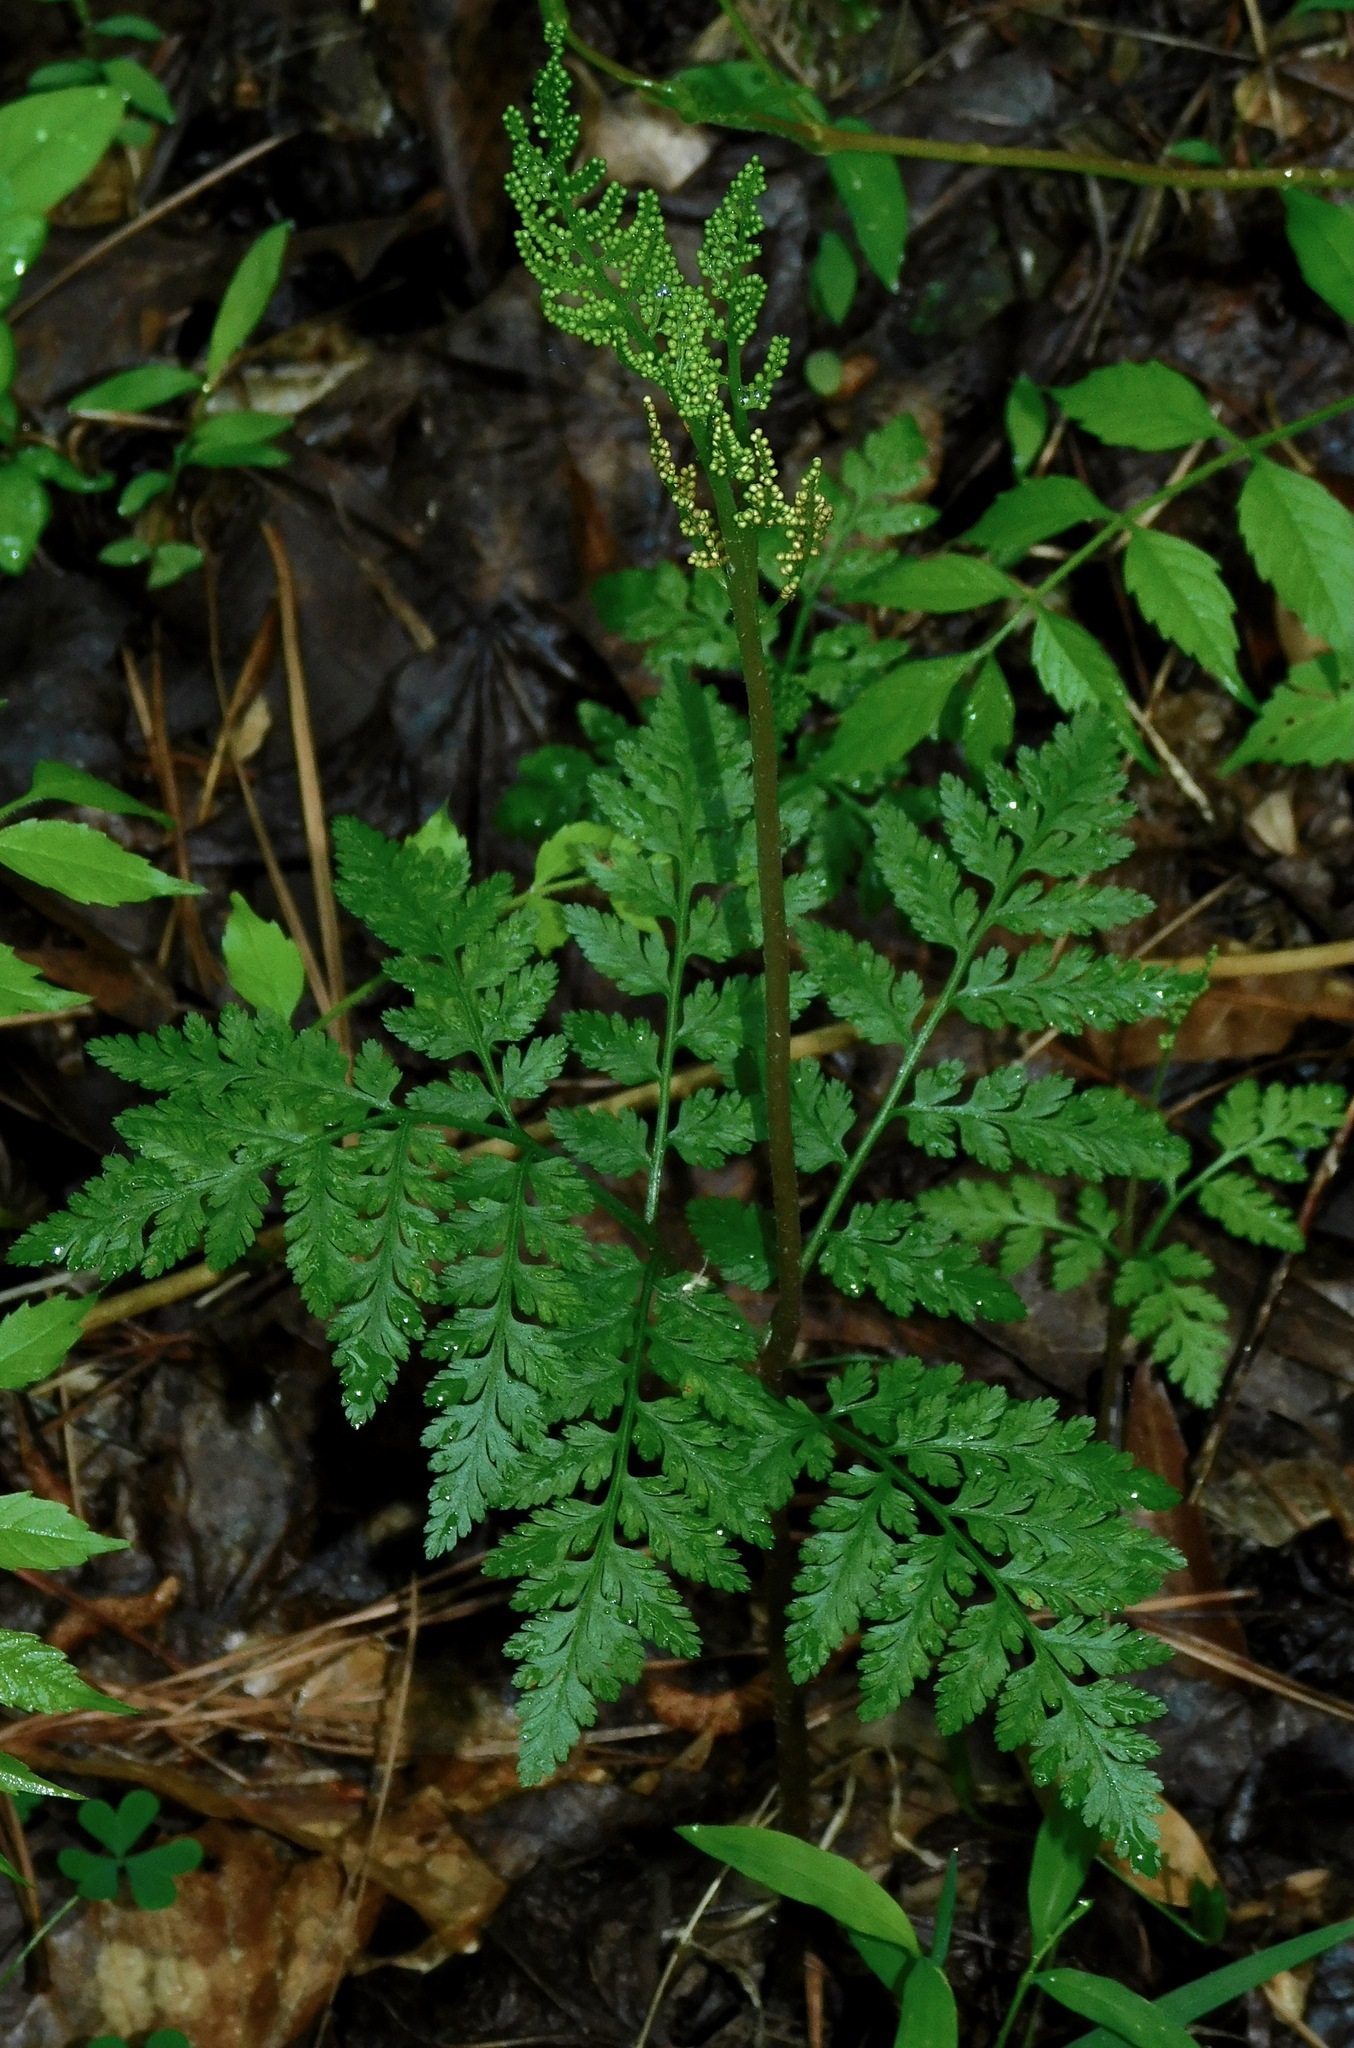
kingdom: Plantae
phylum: Tracheophyta
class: Polypodiopsida
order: Ophioglossales
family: Ophioglossaceae
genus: Botrypus
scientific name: Botrypus virginianus
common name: Common grapefern
